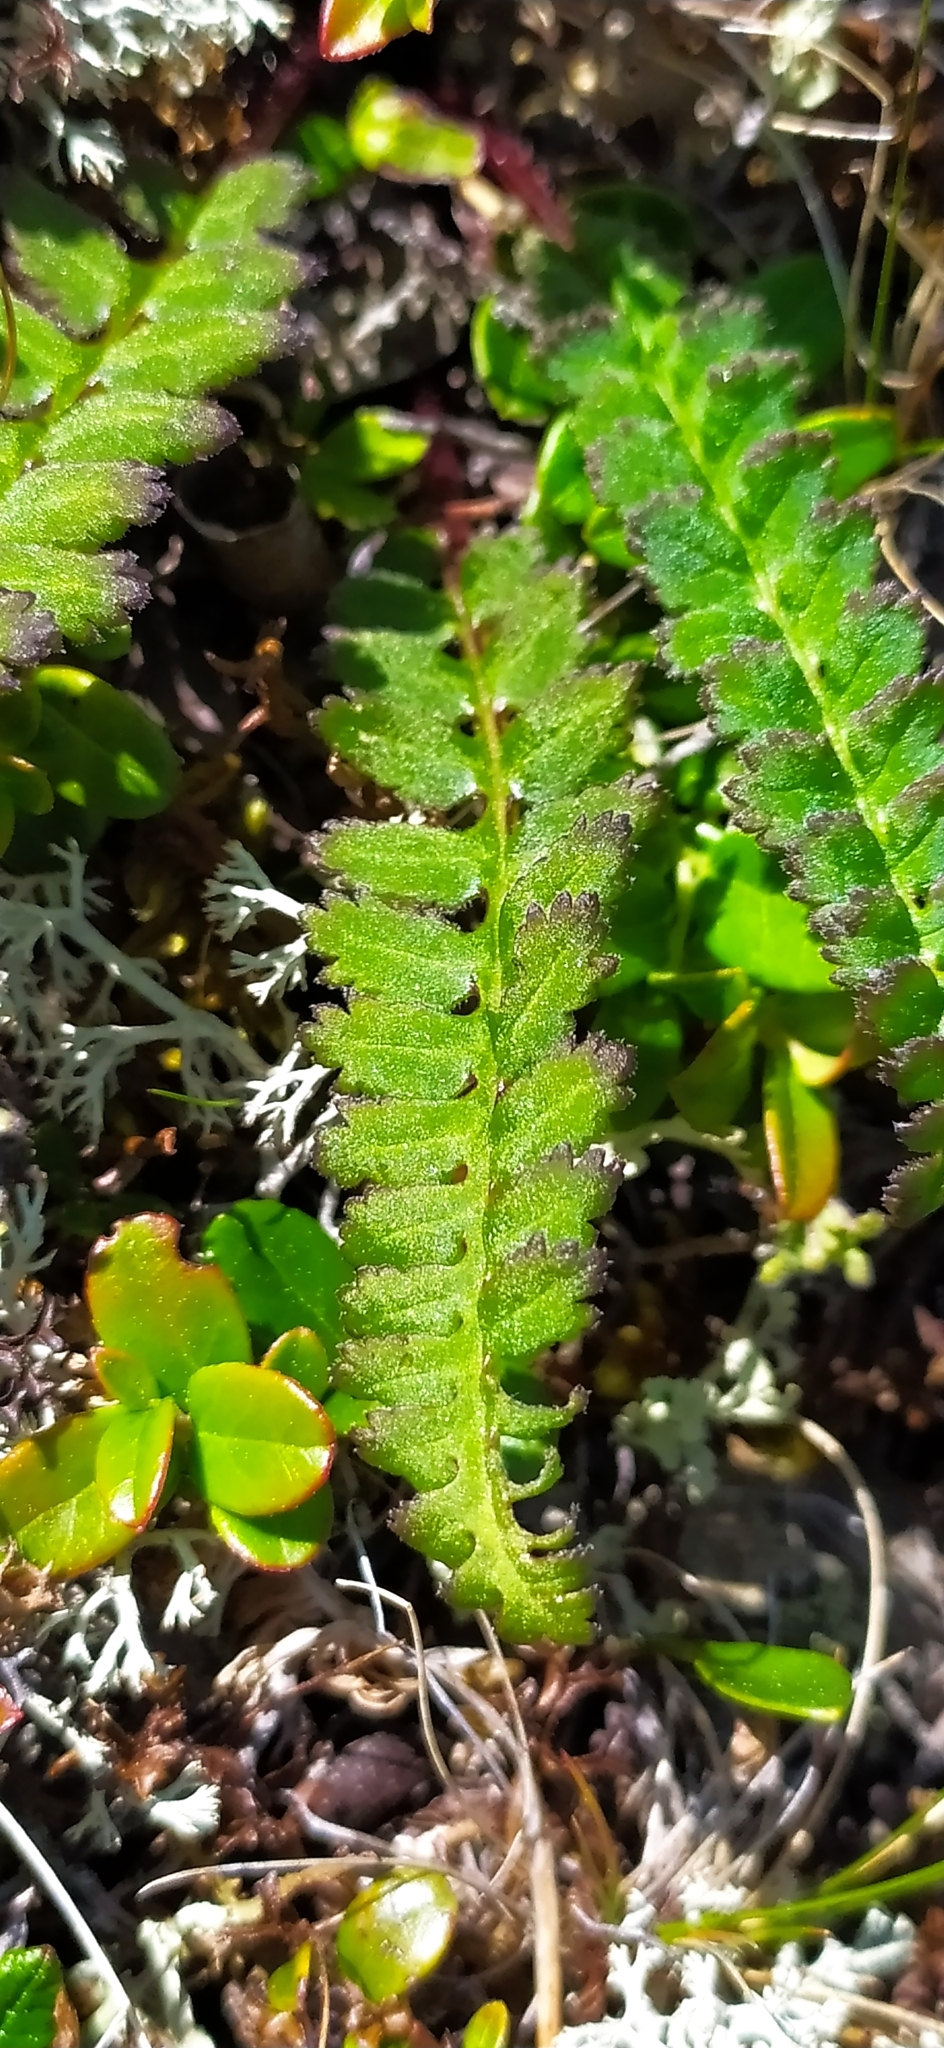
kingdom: Plantae
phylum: Tracheophyta
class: Magnoliopsida
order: Lamiales
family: Orobanchaceae
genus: Pedicularis
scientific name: Pedicularis oederi
